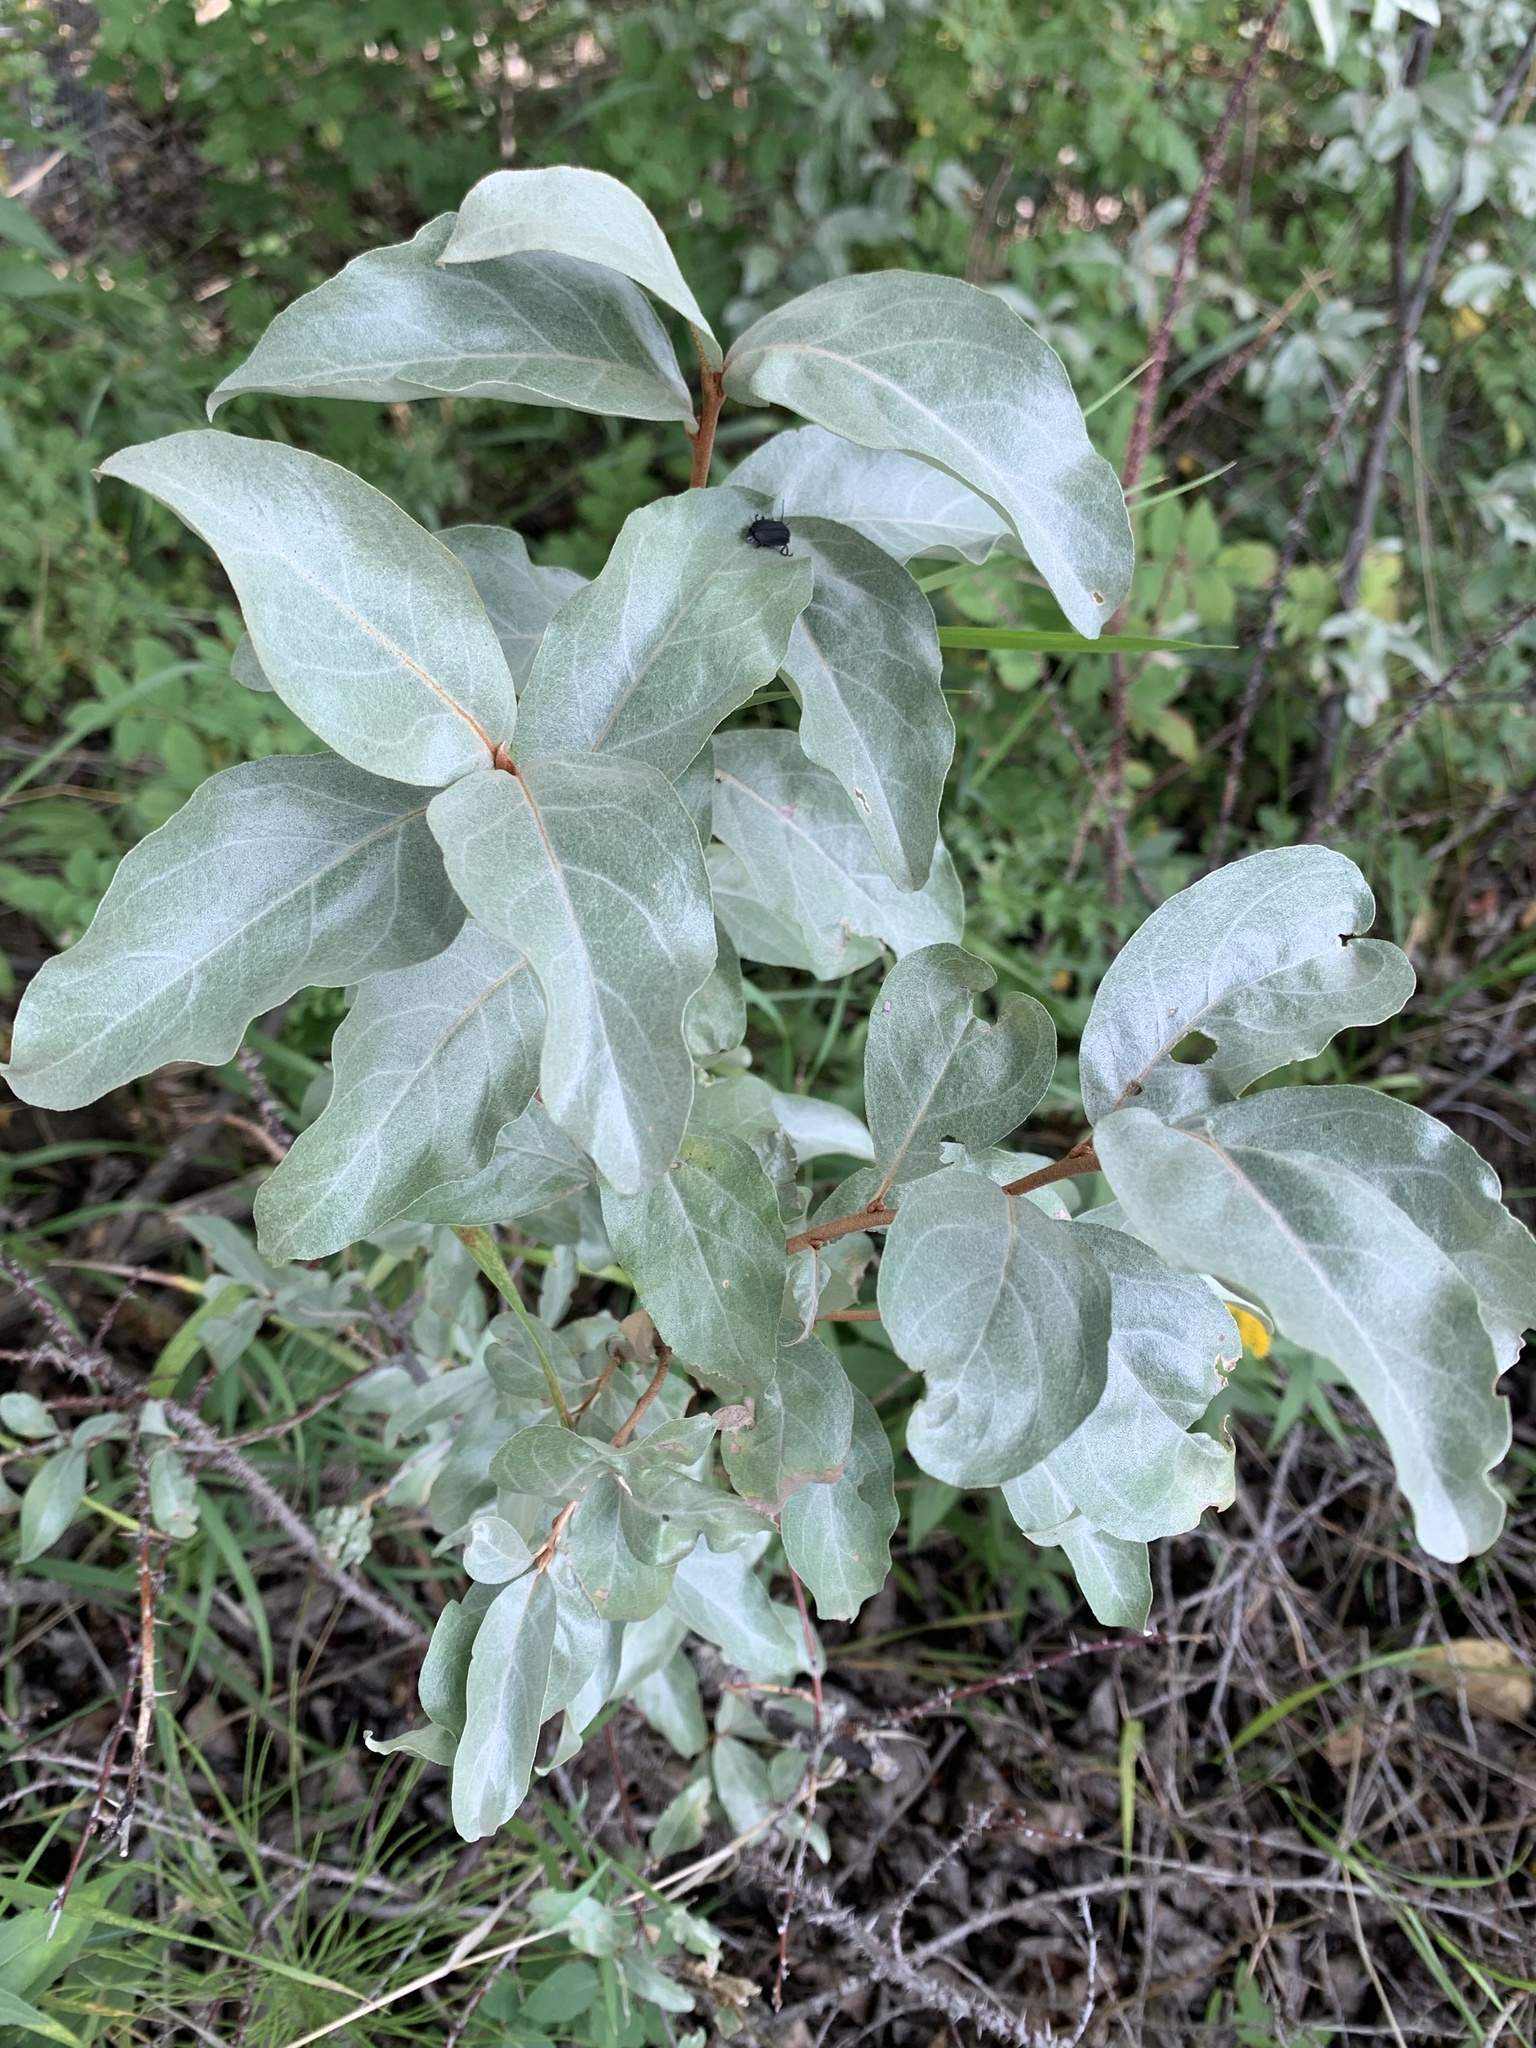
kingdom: Plantae
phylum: Tracheophyta
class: Magnoliopsida
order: Rosales
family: Elaeagnaceae
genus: Elaeagnus
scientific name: Elaeagnus commutata
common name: Silverberry
